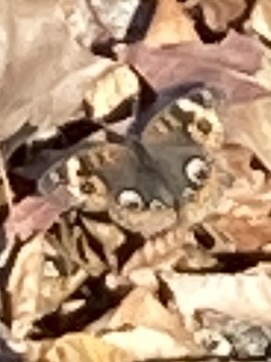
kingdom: Animalia
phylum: Arthropoda
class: Insecta
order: Lepidoptera
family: Nymphalidae
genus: Junonia
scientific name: Junonia coenia
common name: Common buckeye
